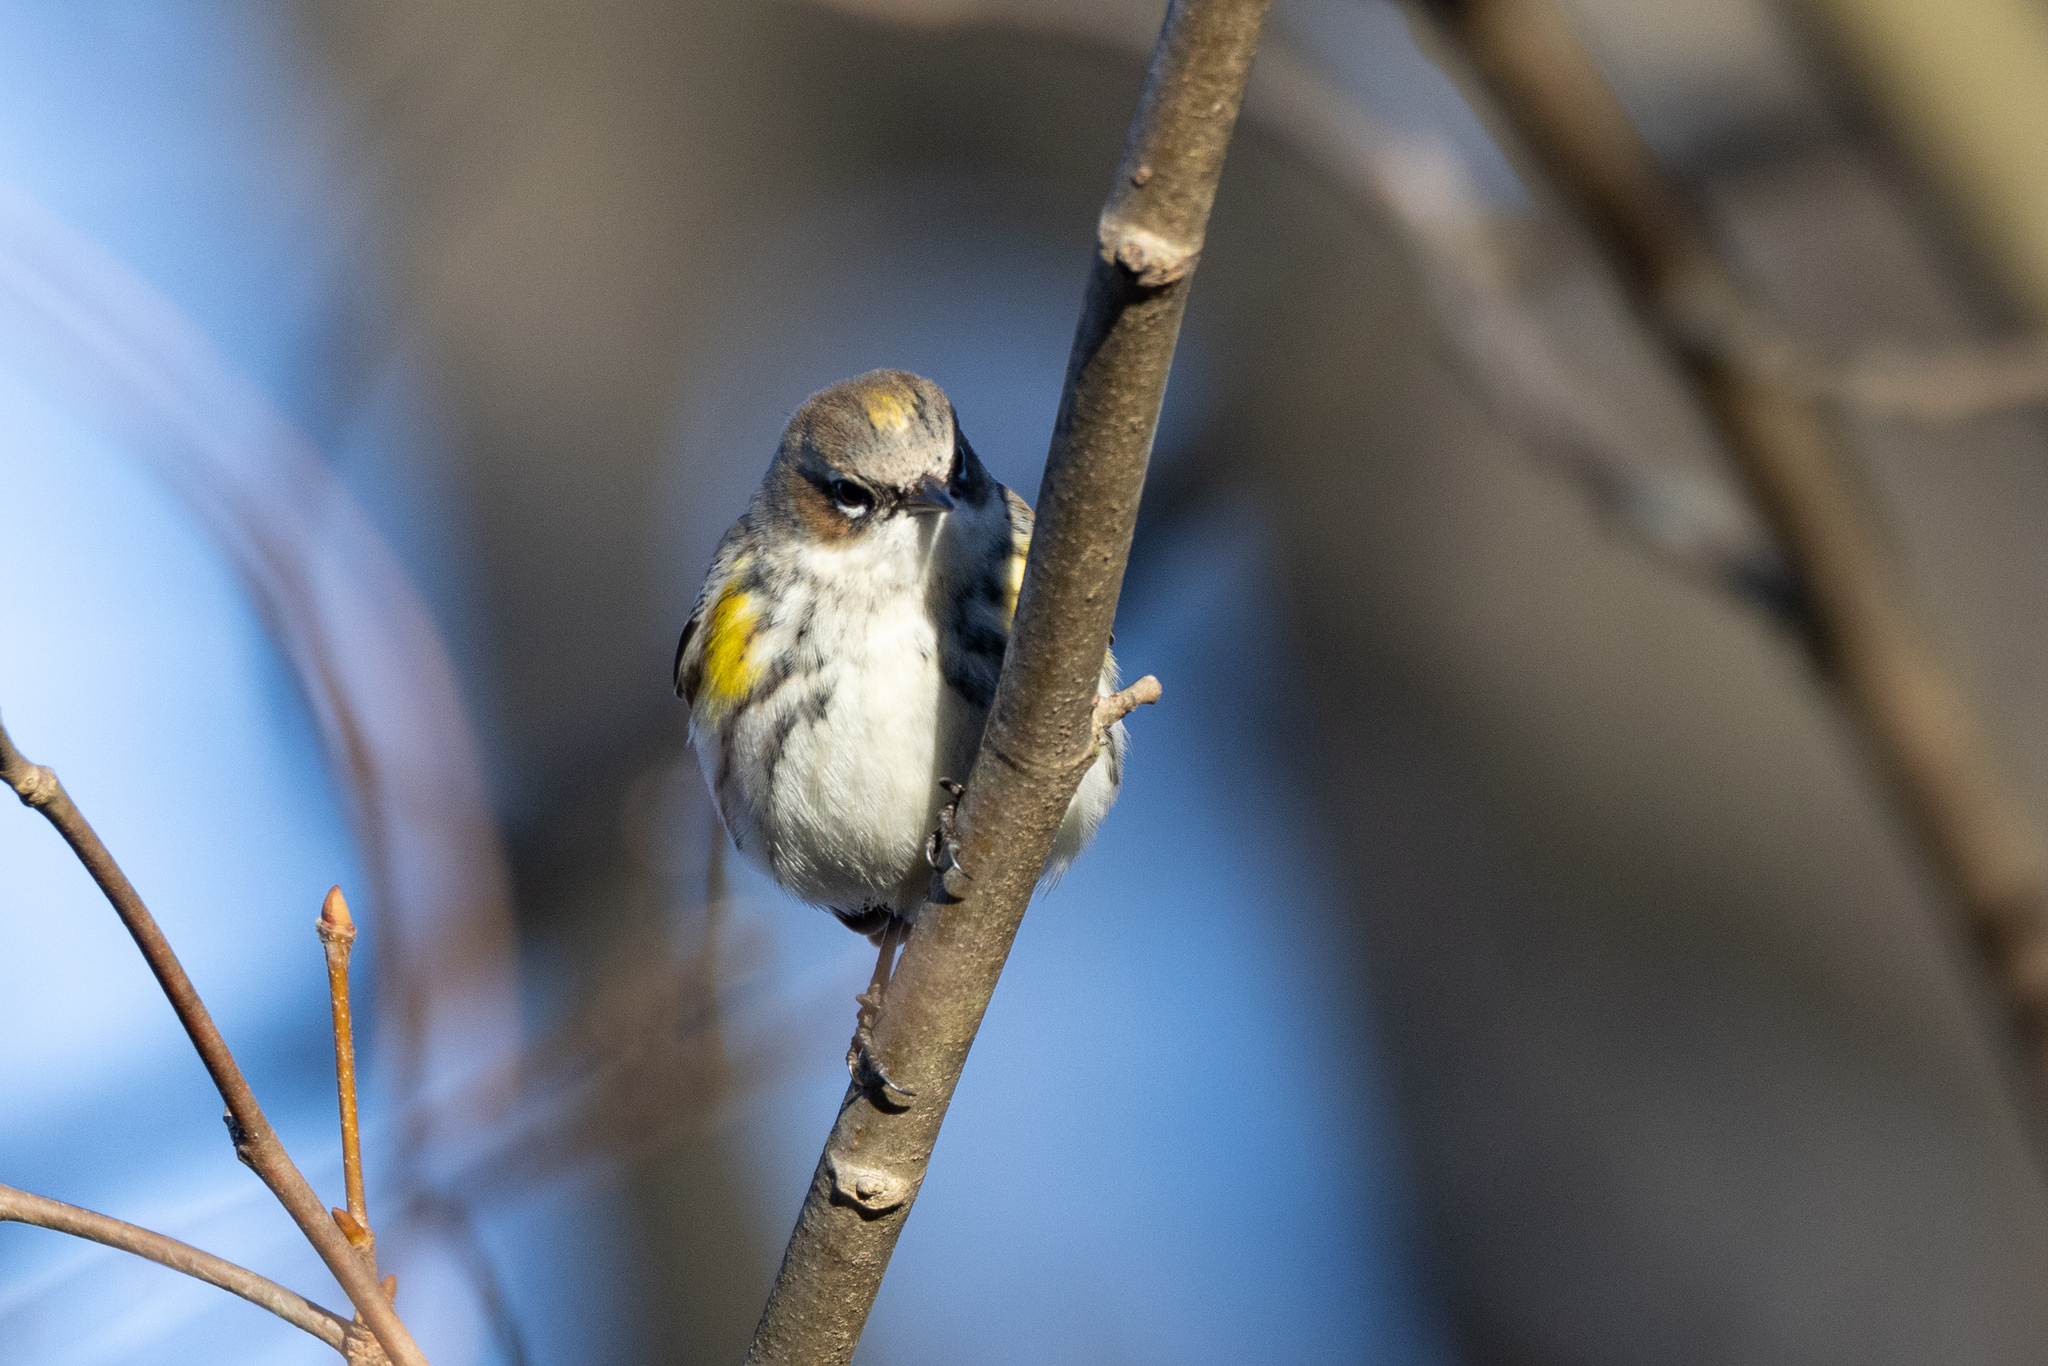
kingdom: Animalia
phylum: Chordata
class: Aves
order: Passeriformes
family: Parulidae
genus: Setophaga
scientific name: Setophaga coronata
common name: Myrtle warbler
